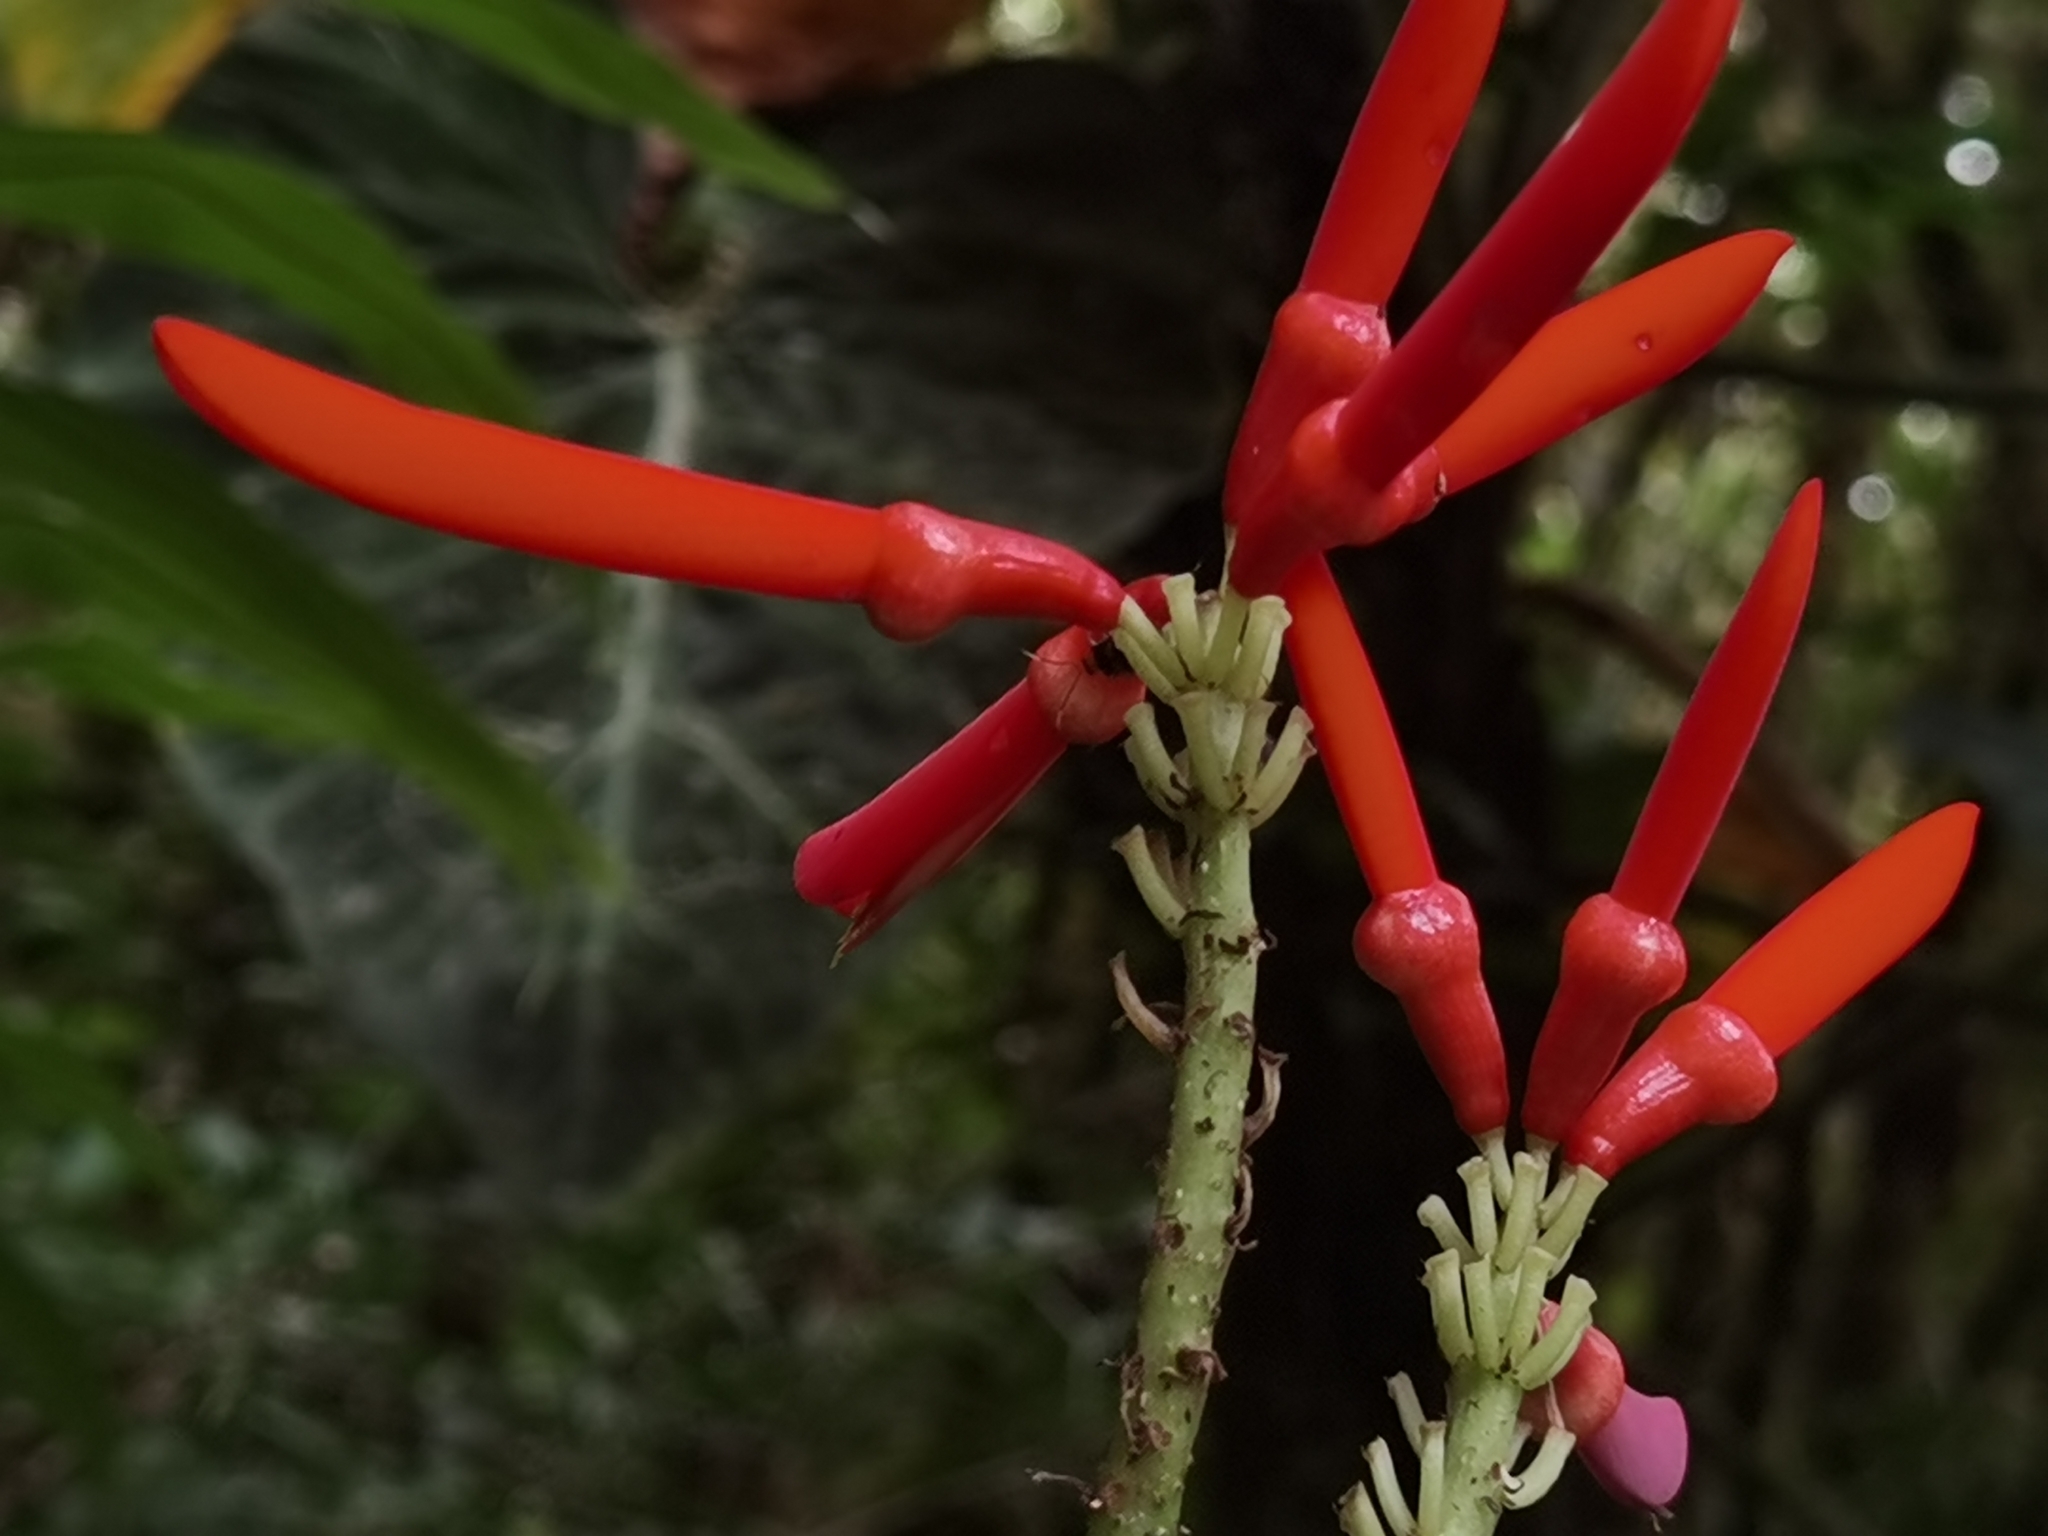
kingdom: Plantae
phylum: Tracheophyta
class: Magnoliopsida
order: Fabales
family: Fabaceae
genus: Erythrina
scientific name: Erythrina gibbosa
